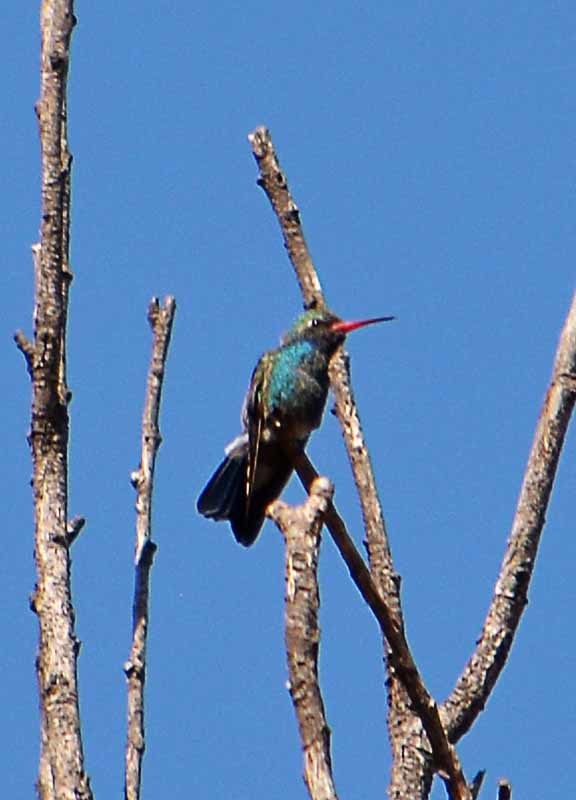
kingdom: Animalia
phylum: Chordata
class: Aves
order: Apodiformes
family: Trochilidae
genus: Cynanthus
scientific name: Cynanthus latirostris
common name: Broad-billed hummingbird
